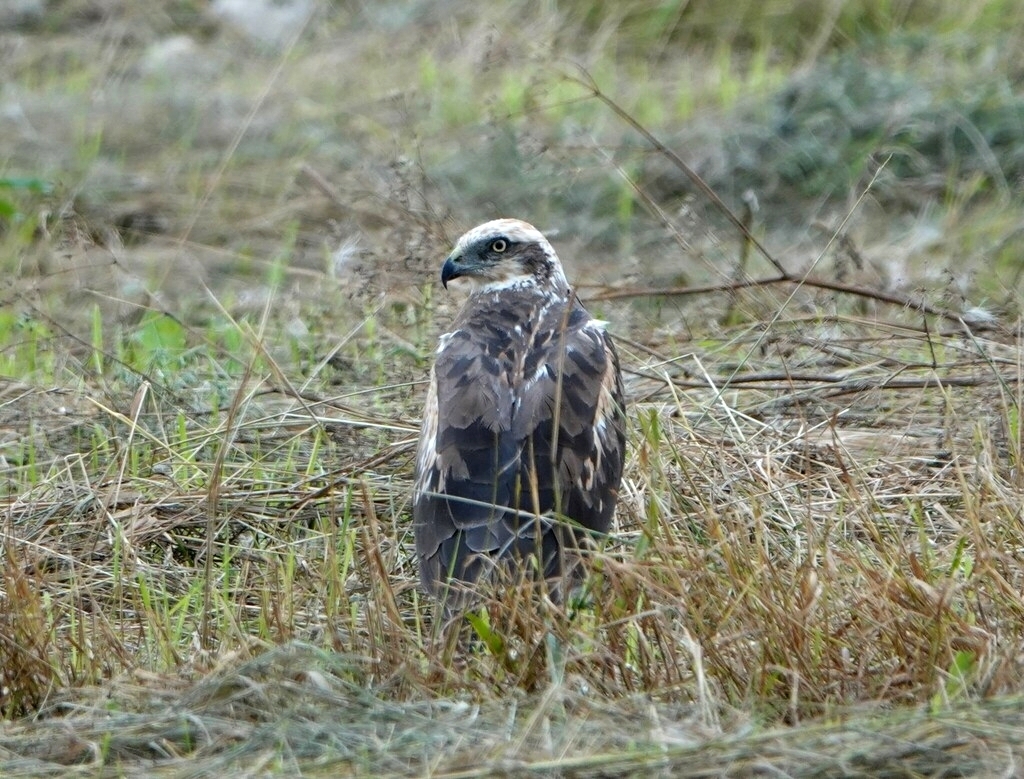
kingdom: Animalia
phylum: Chordata
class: Aves
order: Accipitriformes
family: Accipitridae
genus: Circus
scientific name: Circus aeruginosus
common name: Western marsh harrier
